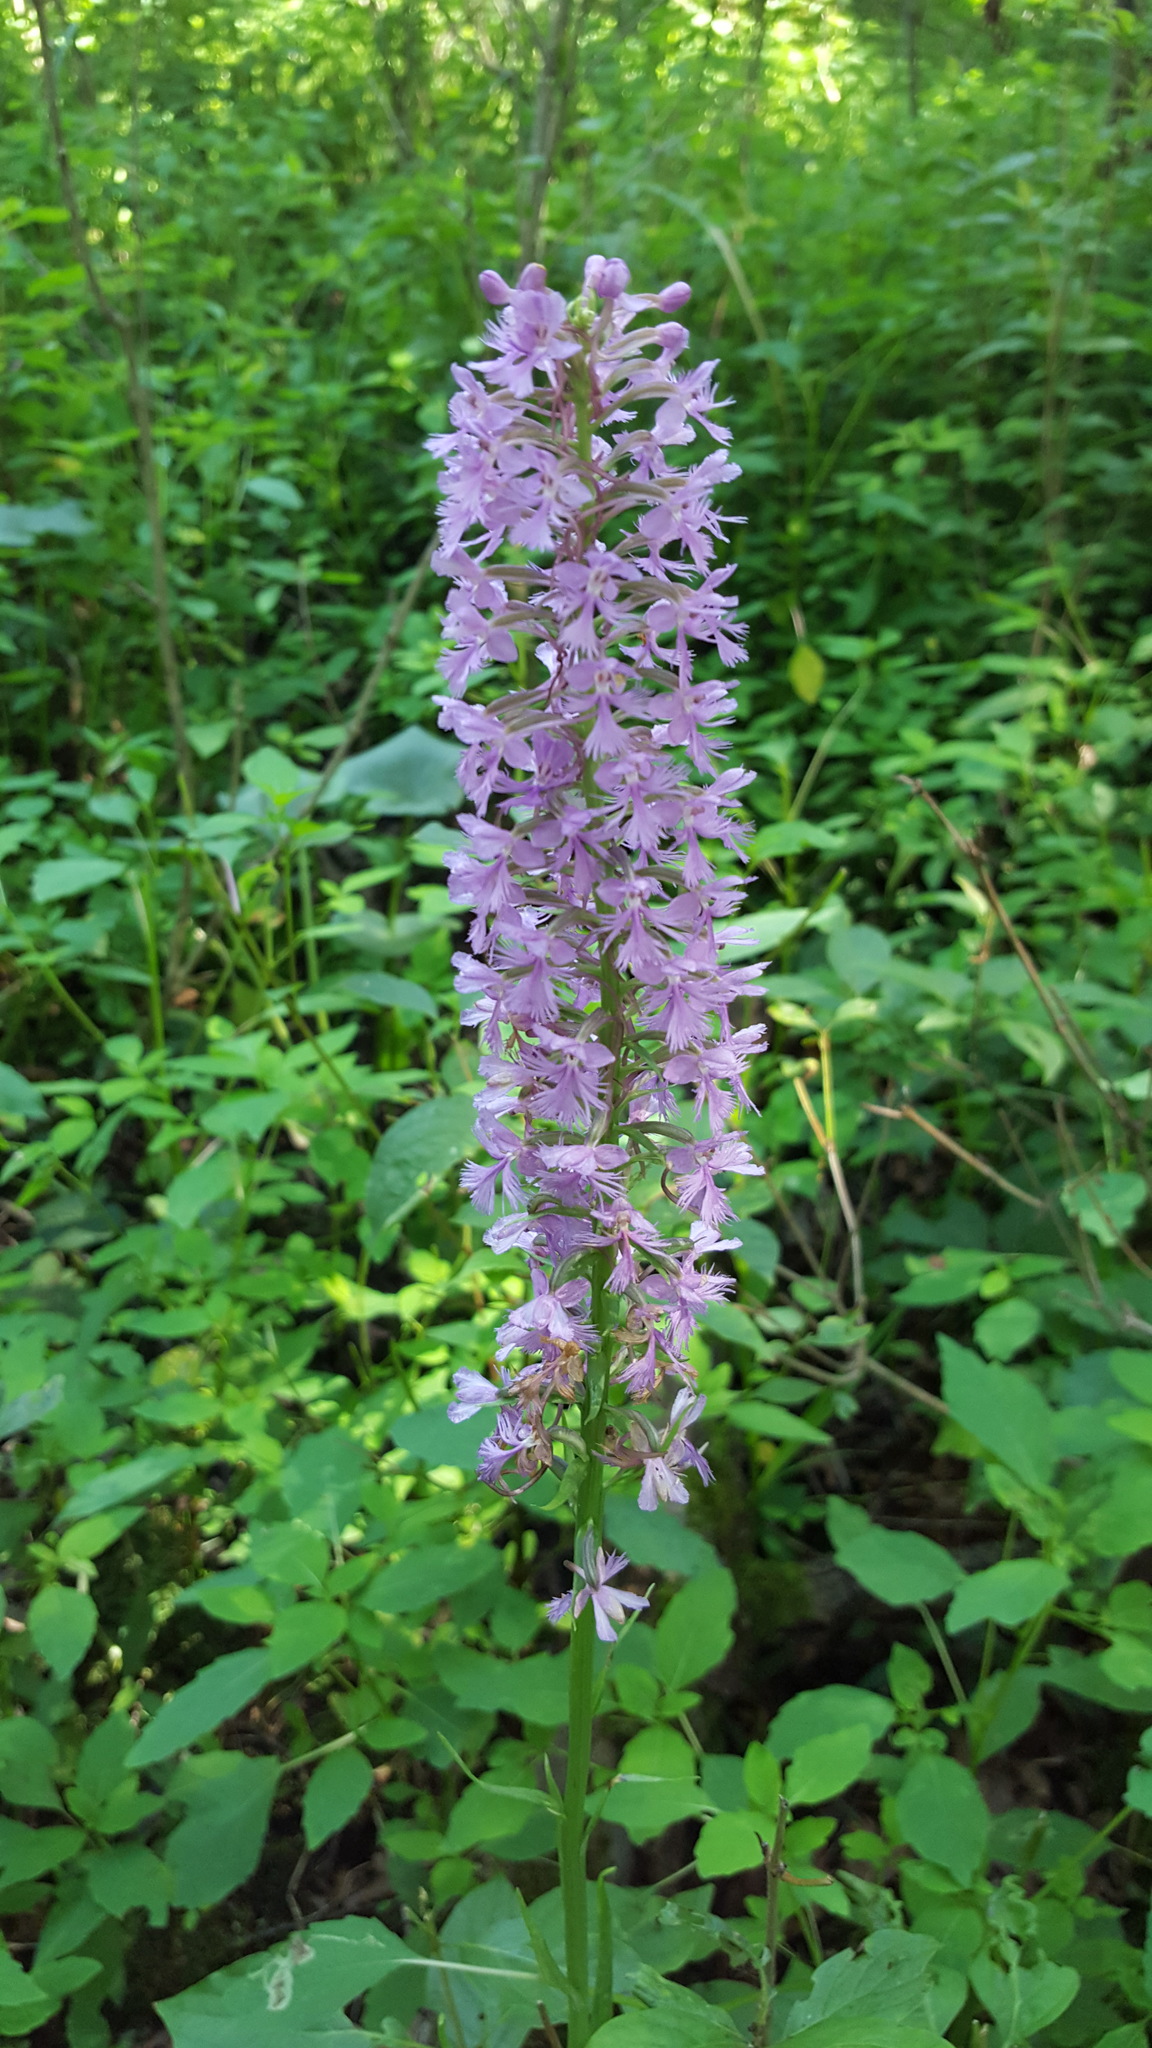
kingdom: Plantae
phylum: Tracheophyta
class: Liliopsida
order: Asparagales
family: Orchidaceae
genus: Platanthera
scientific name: Platanthera psycodes
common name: Lesser purple fringed orchid
